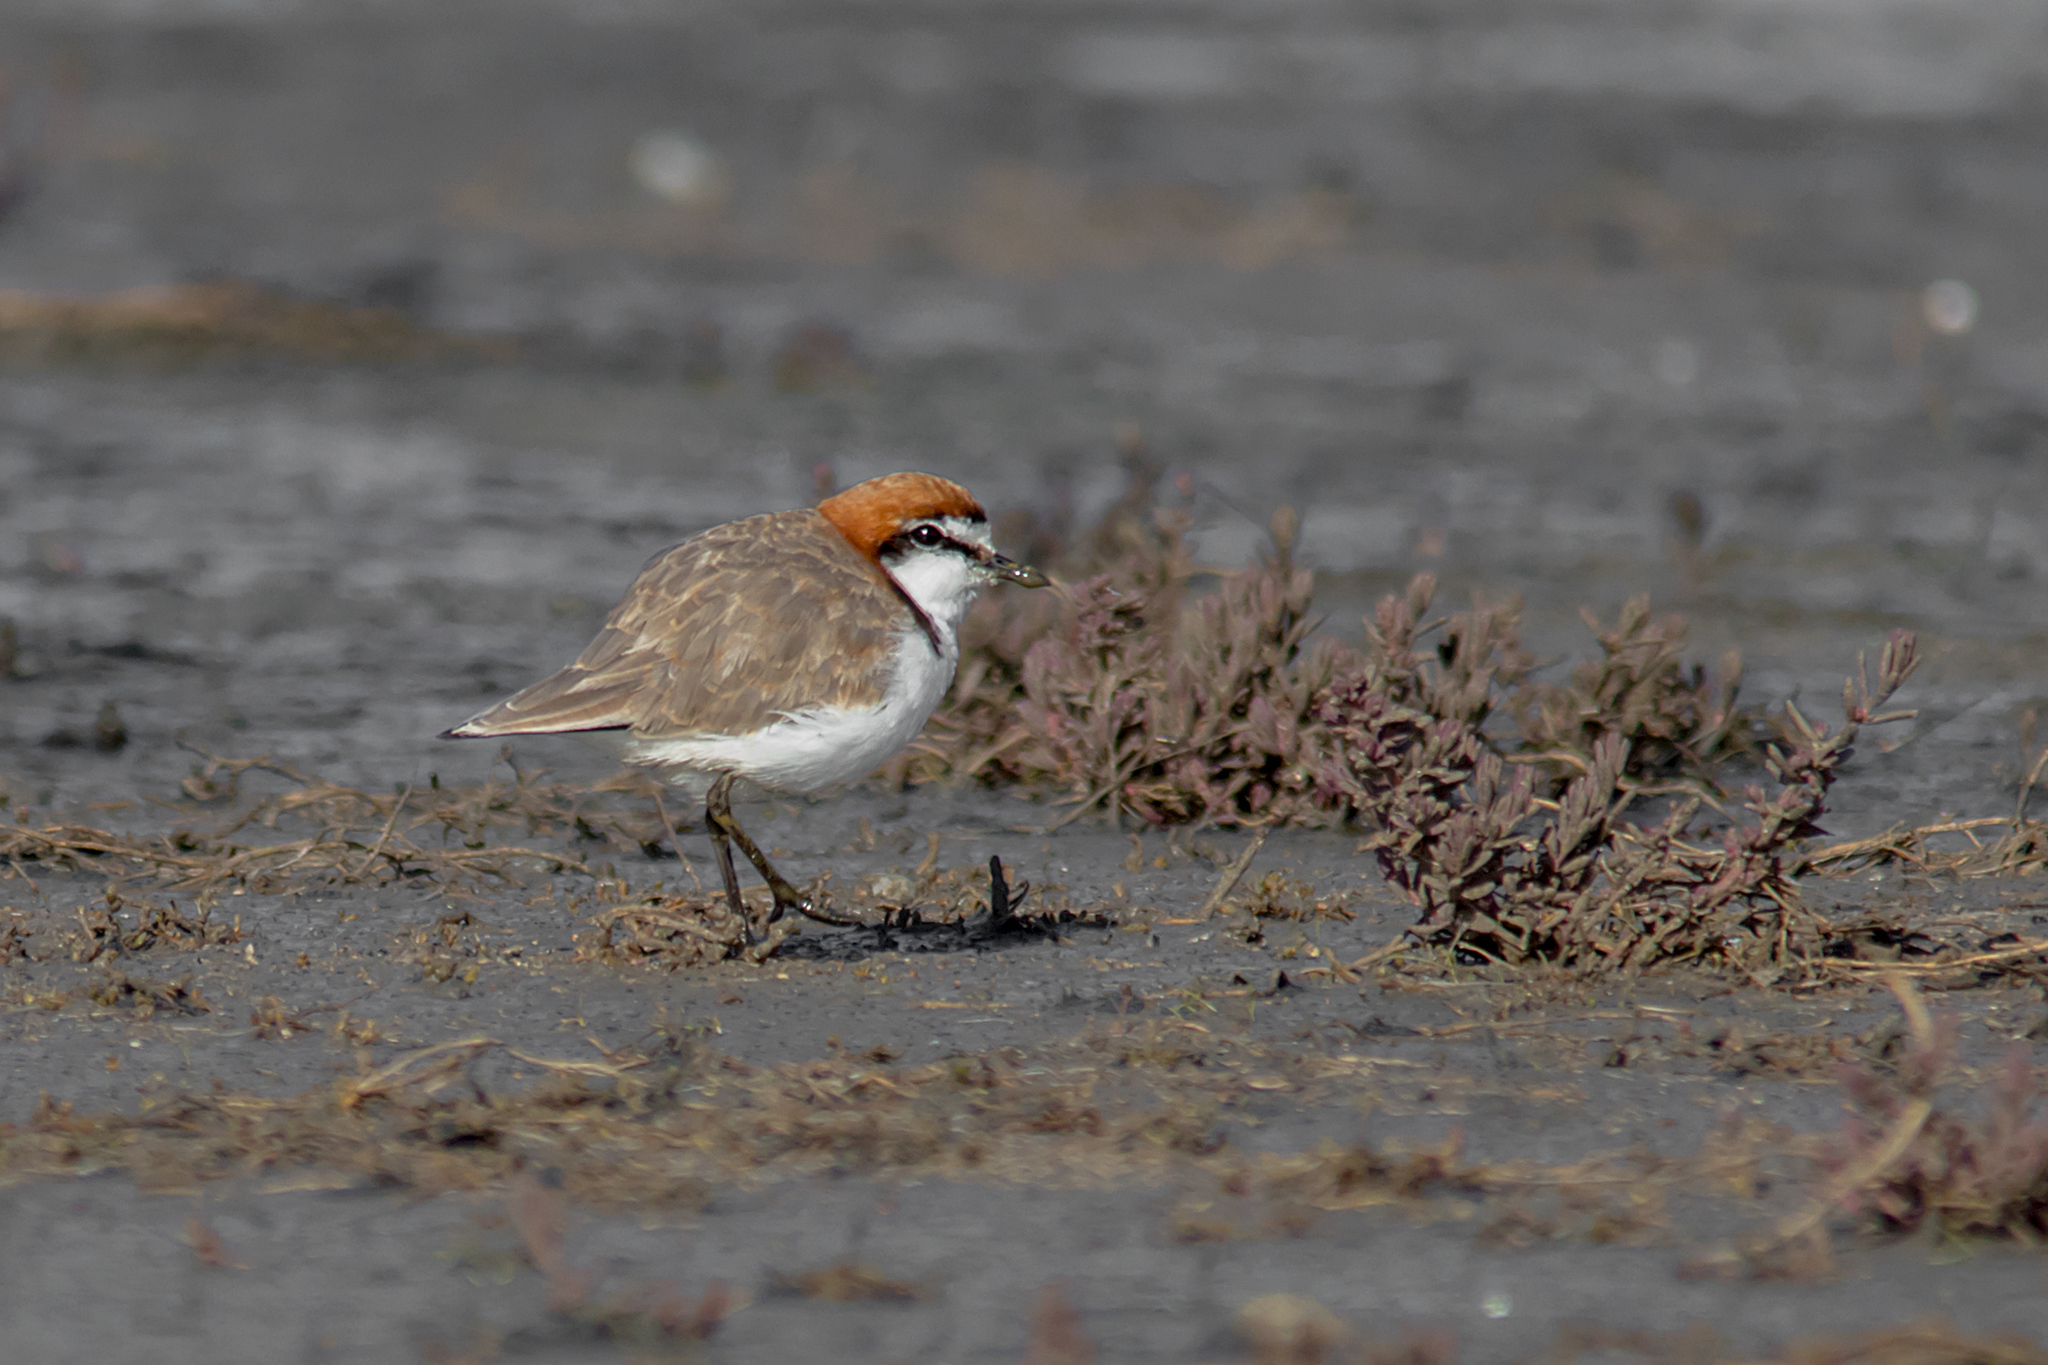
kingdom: Animalia
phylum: Chordata
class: Aves
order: Charadriiformes
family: Charadriidae
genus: Anarhynchus
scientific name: Anarhynchus
